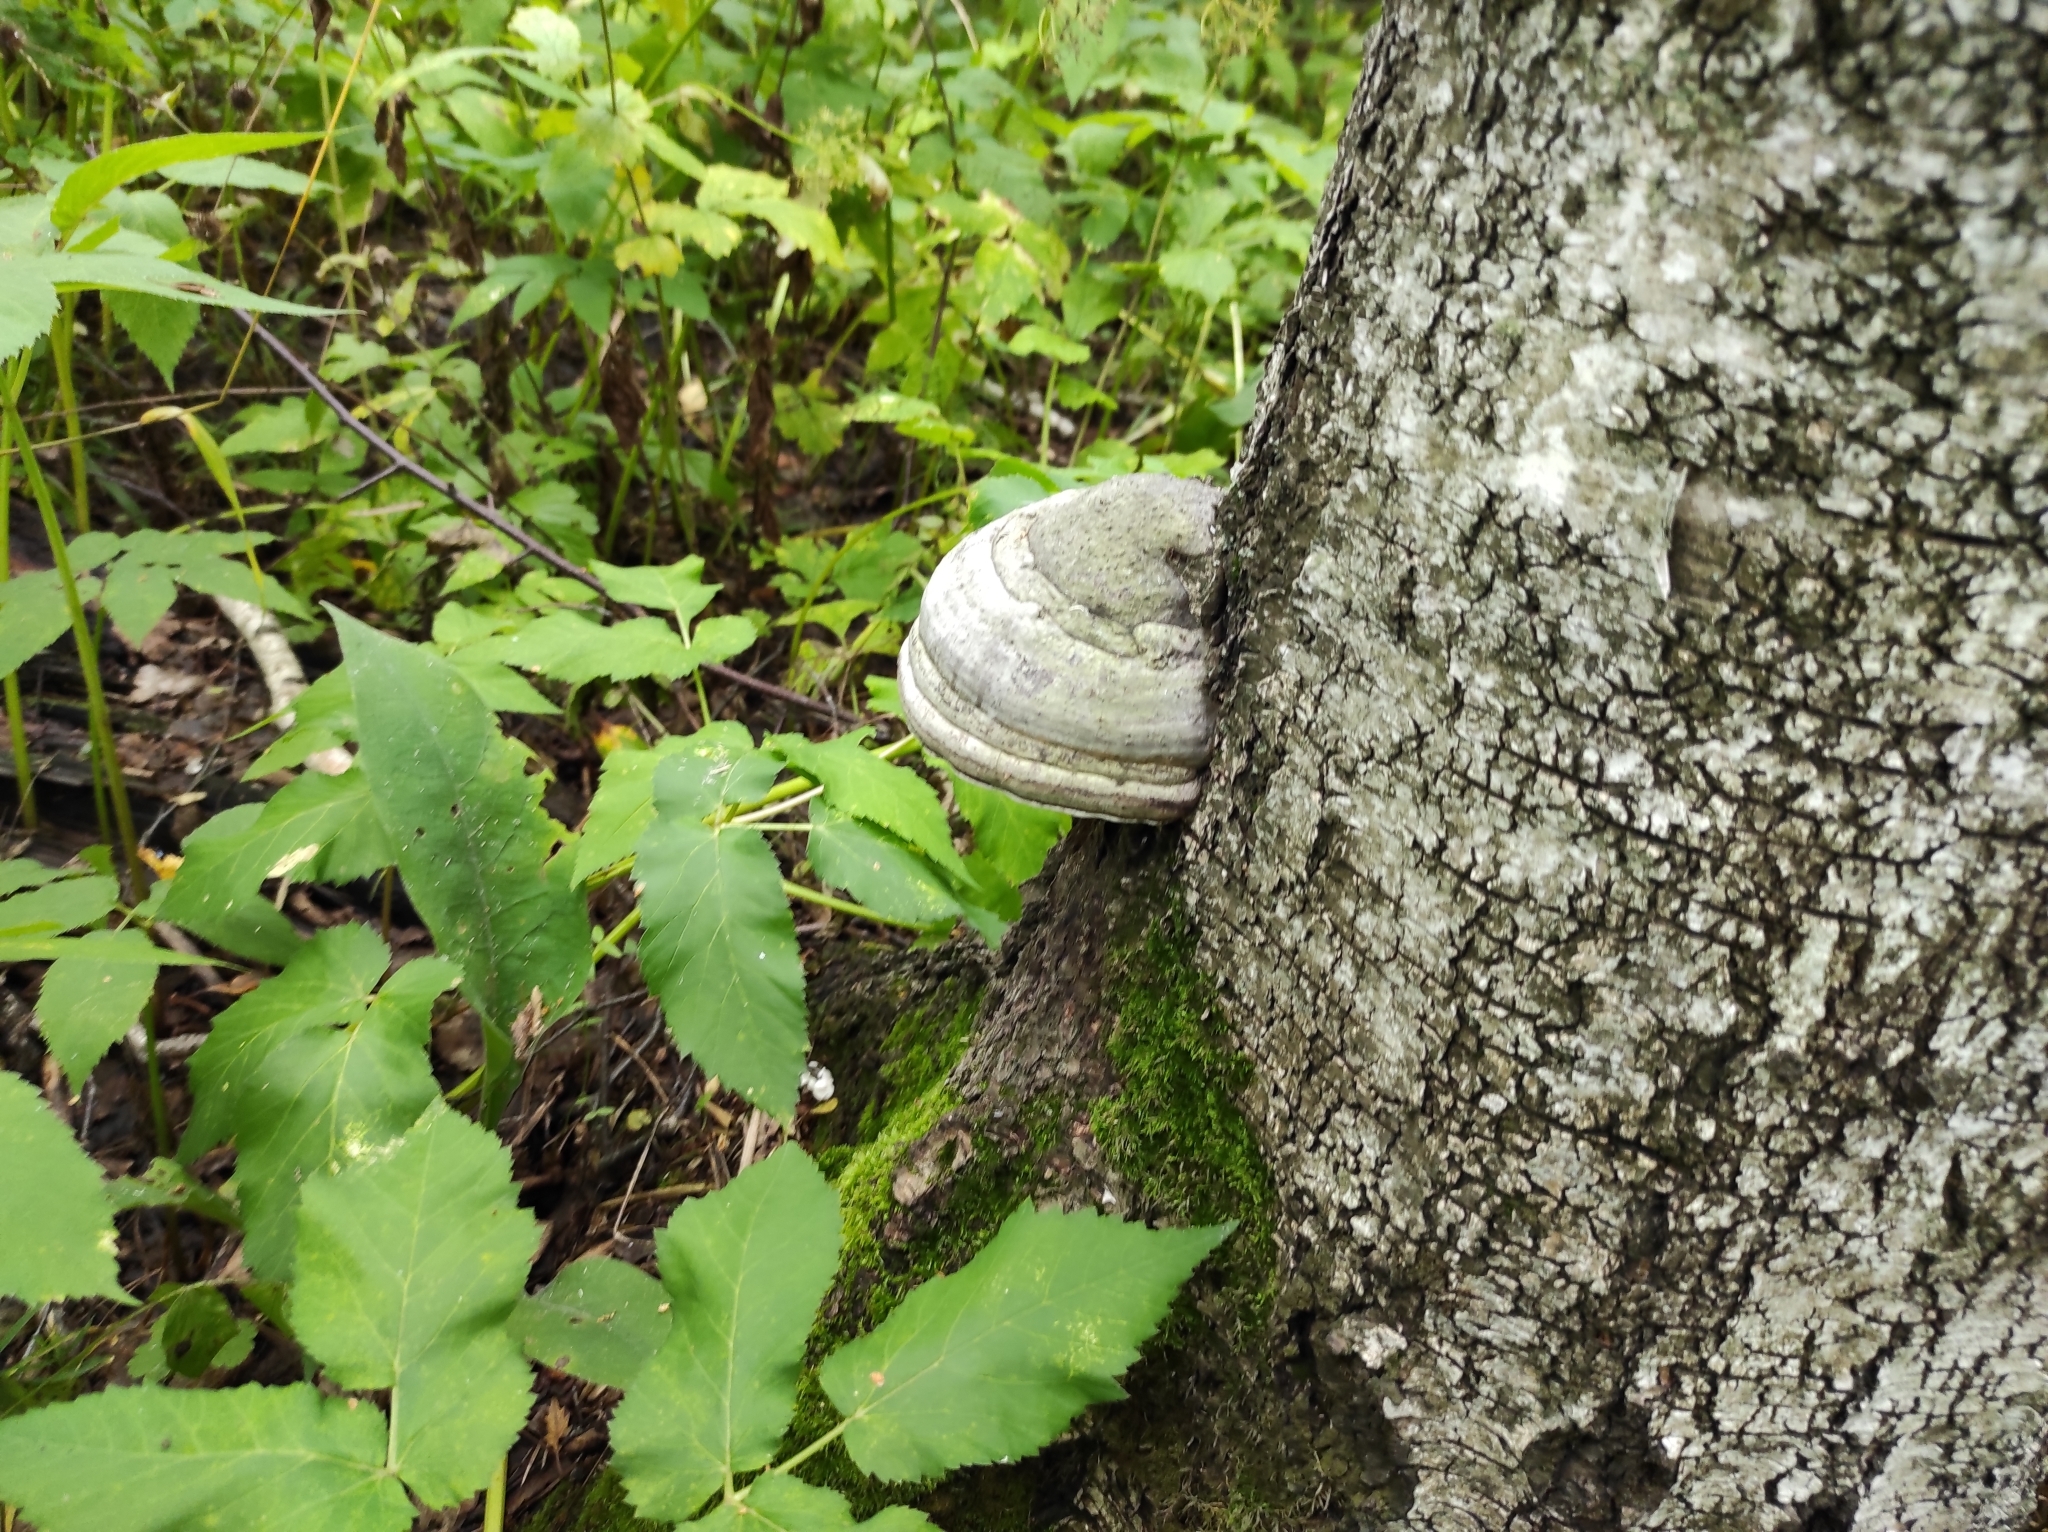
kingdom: Fungi
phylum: Basidiomycota
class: Agaricomycetes
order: Polyporales
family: Polyporaceae
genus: Fomes
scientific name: Fomes fomentarius
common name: Hoof fungus
